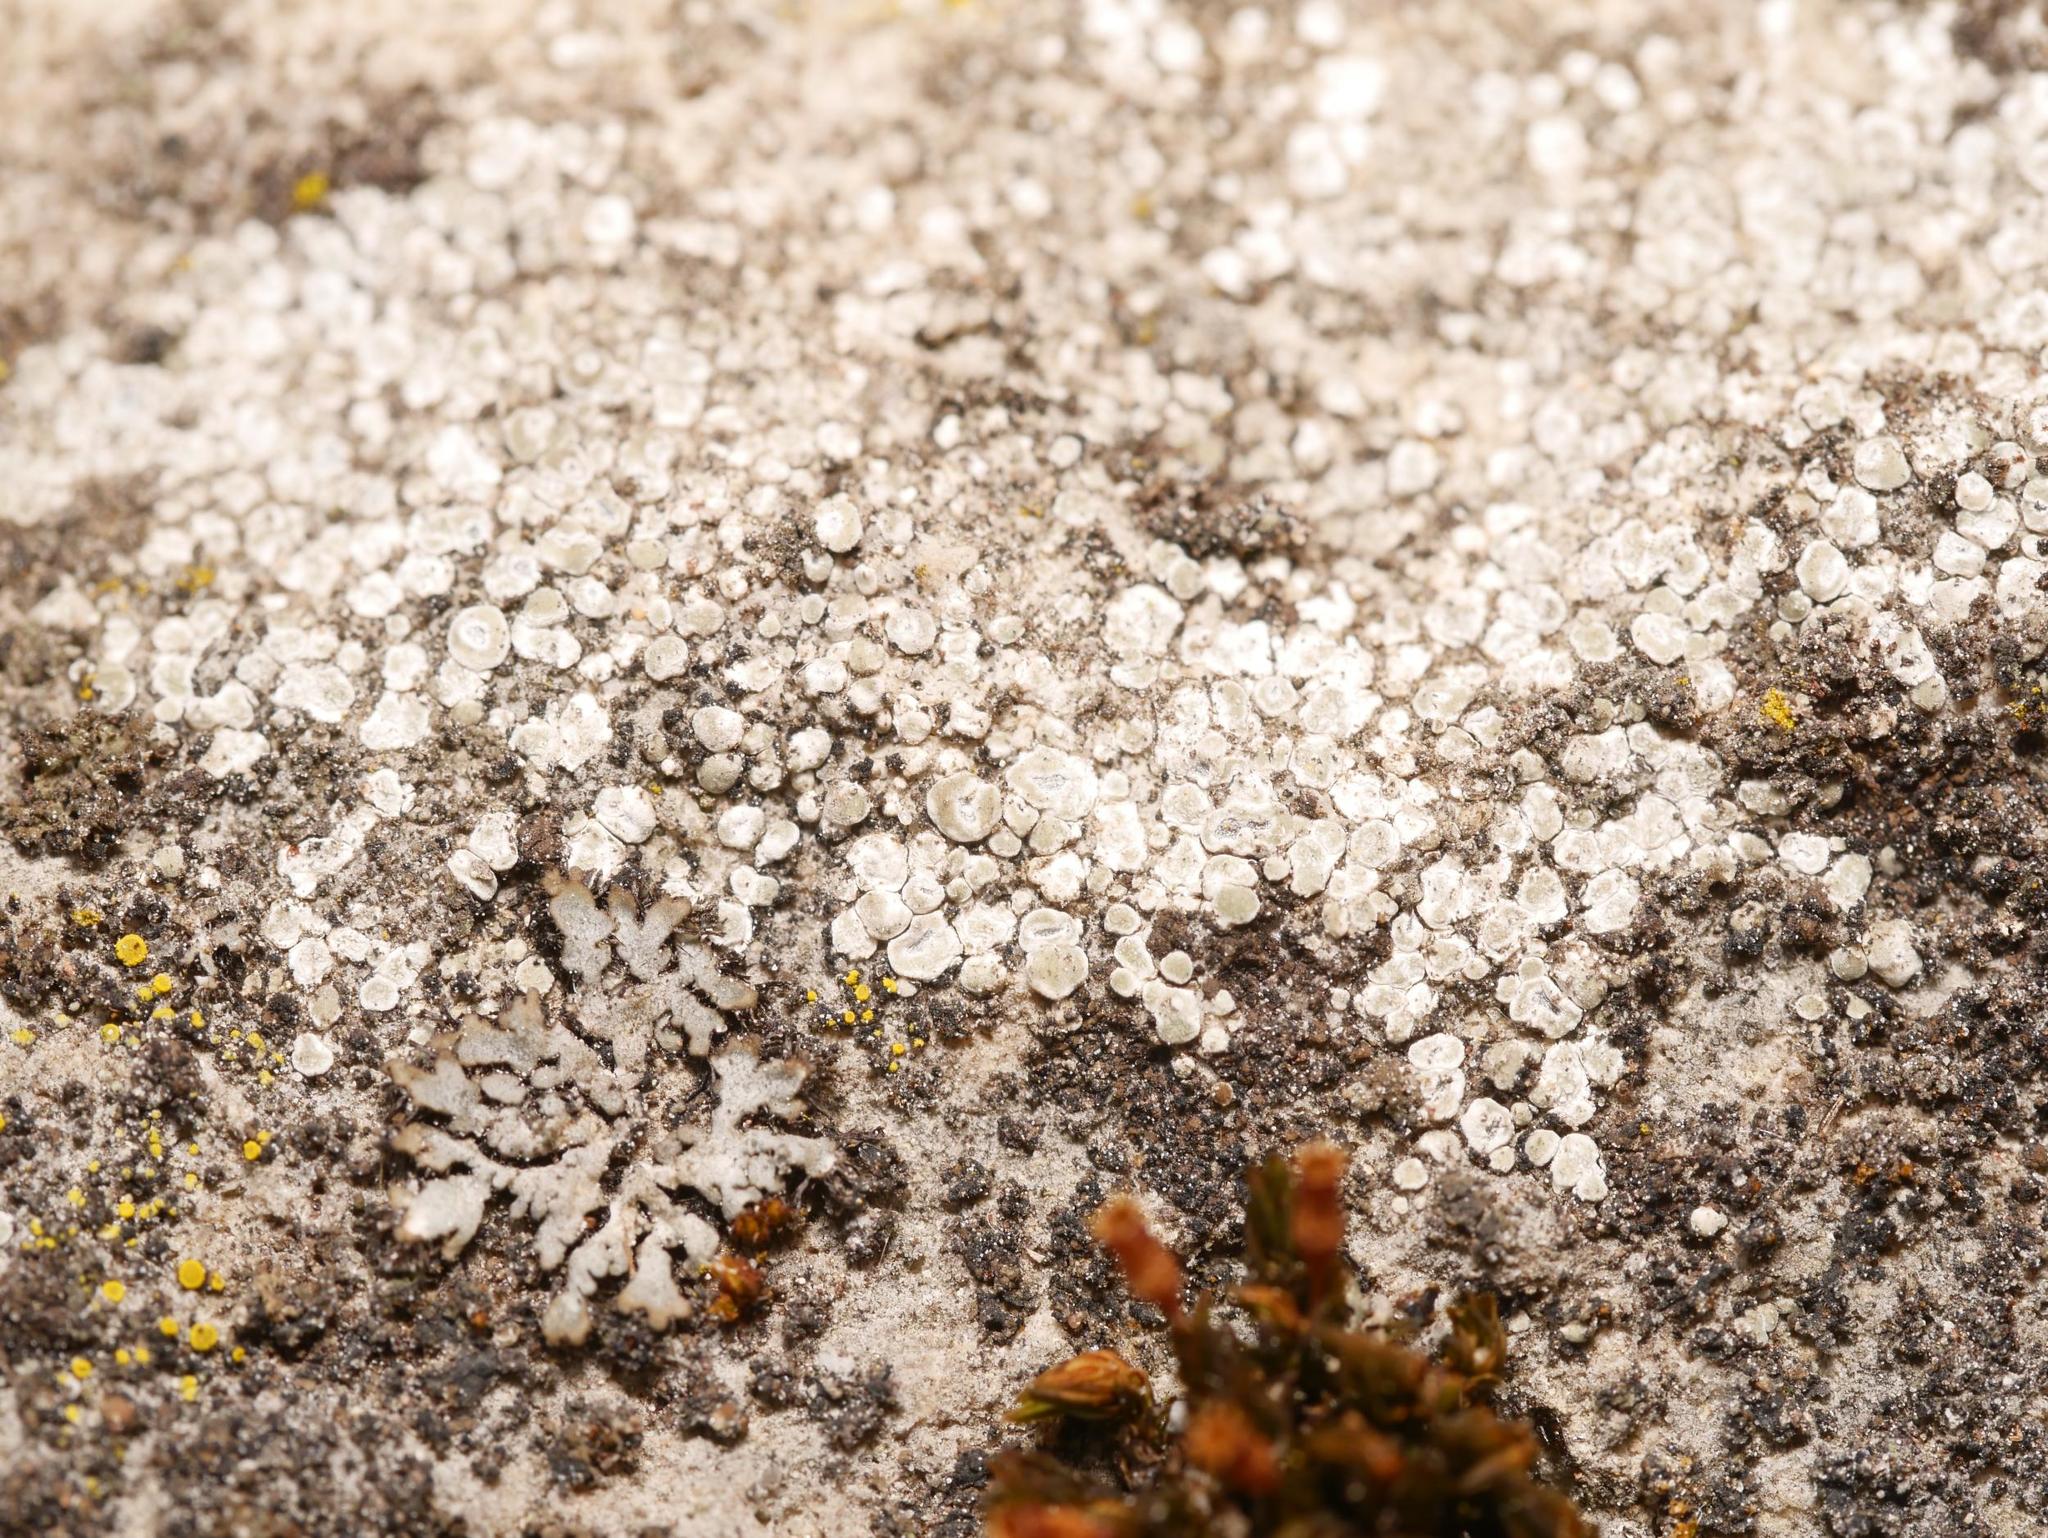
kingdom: Fungi
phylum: Ascomycota
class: Lecanoromycetes
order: Pertusariales
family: Megasporaceae
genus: Circinaria
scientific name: Circinaria contorta
